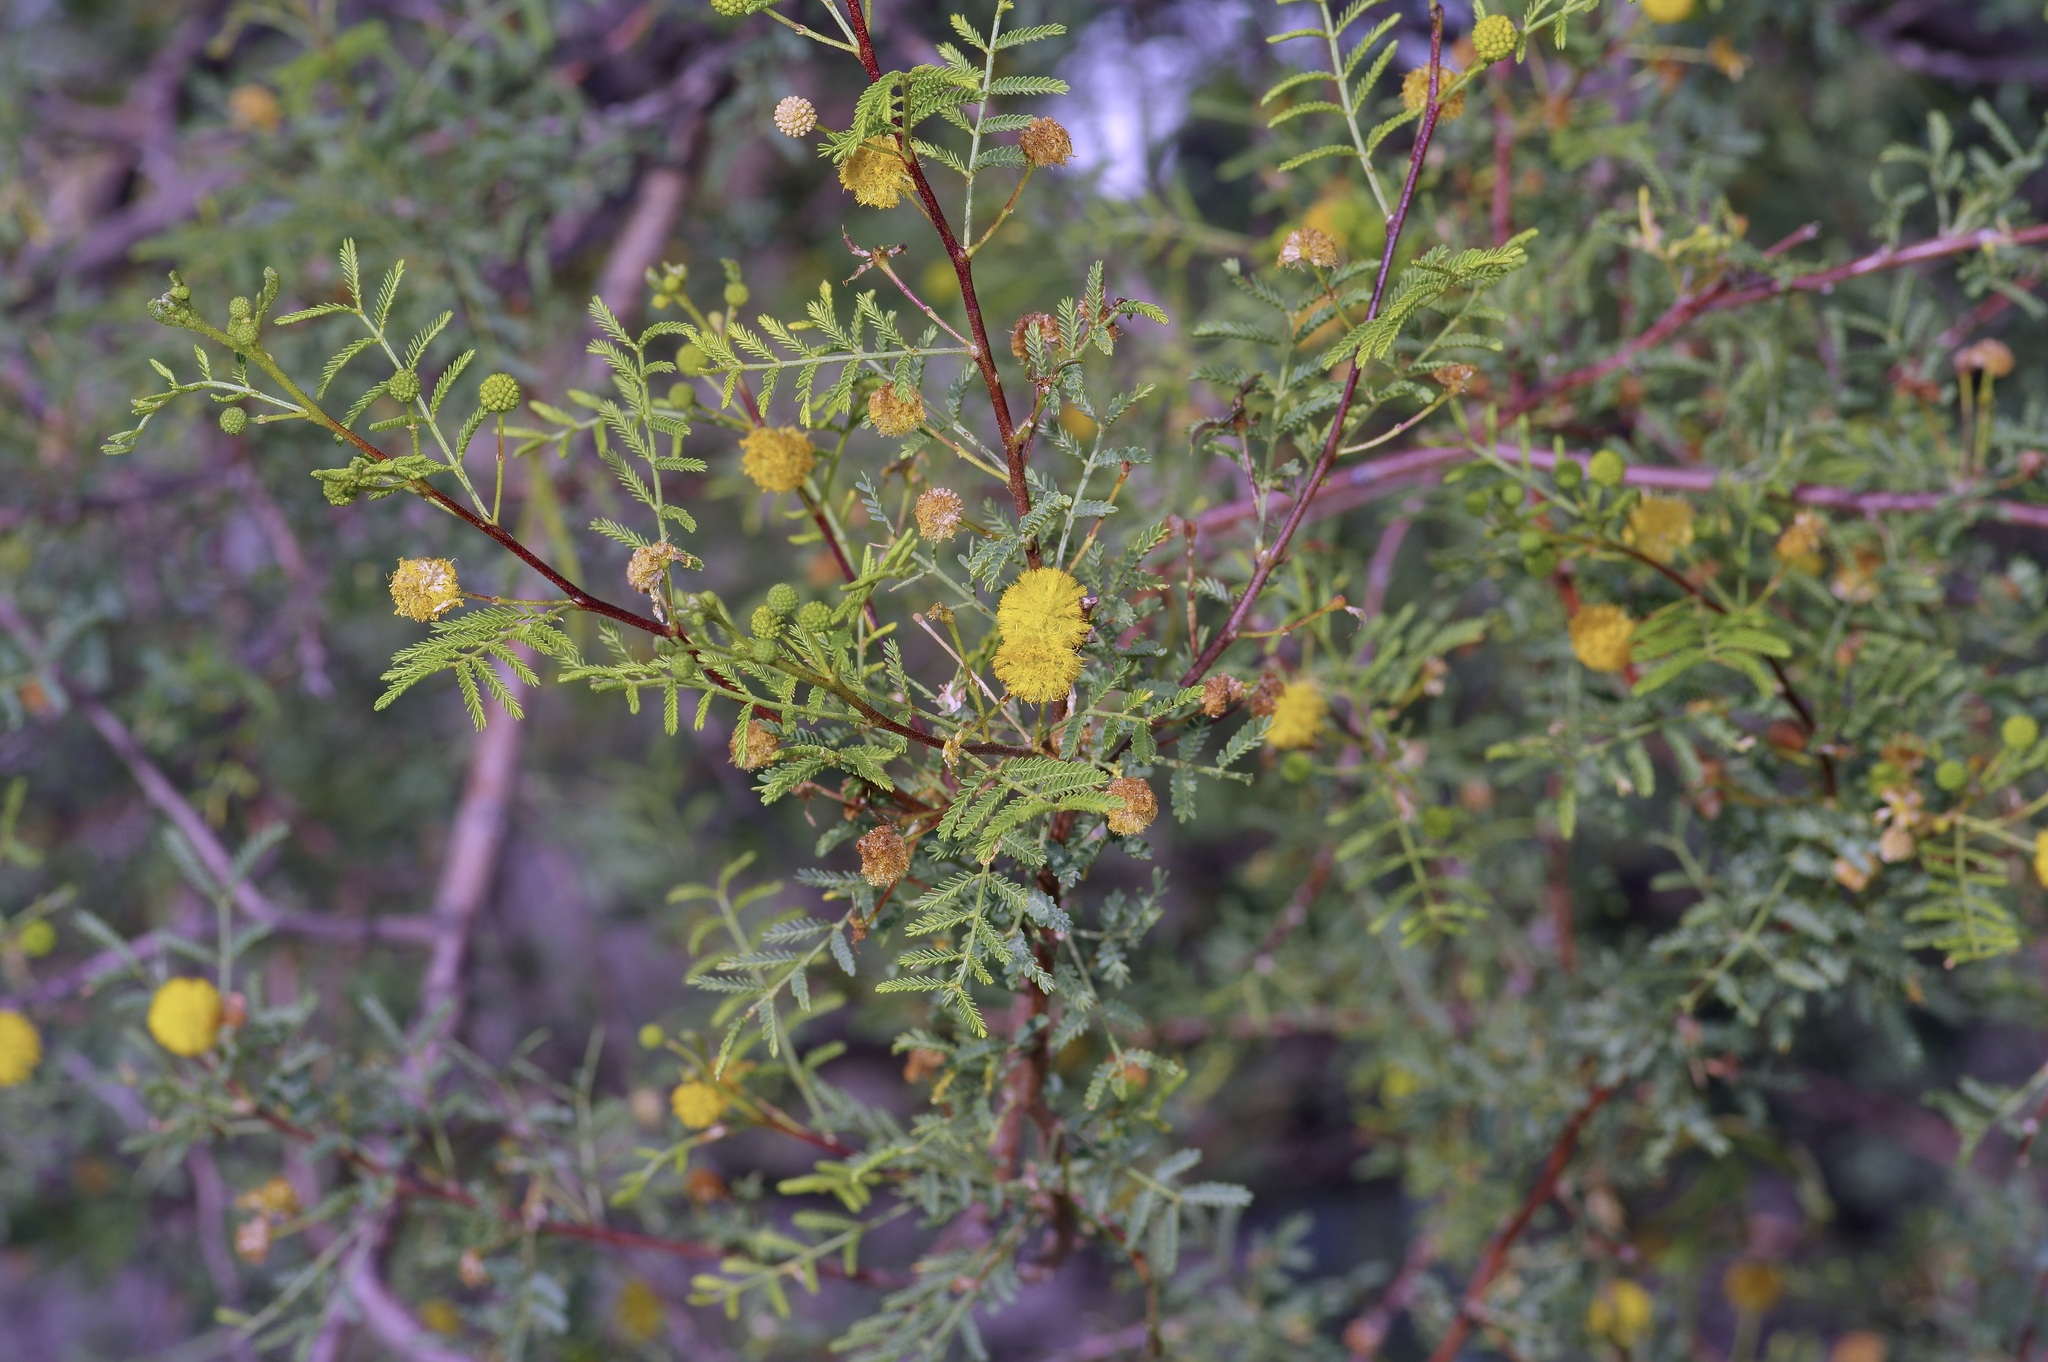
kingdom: Plantae
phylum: Tracheophyta
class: Magnoliopsida
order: Fabales
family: Fabaceae
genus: Vachellia
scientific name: Vachellia constricta
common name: Mescat acacia
